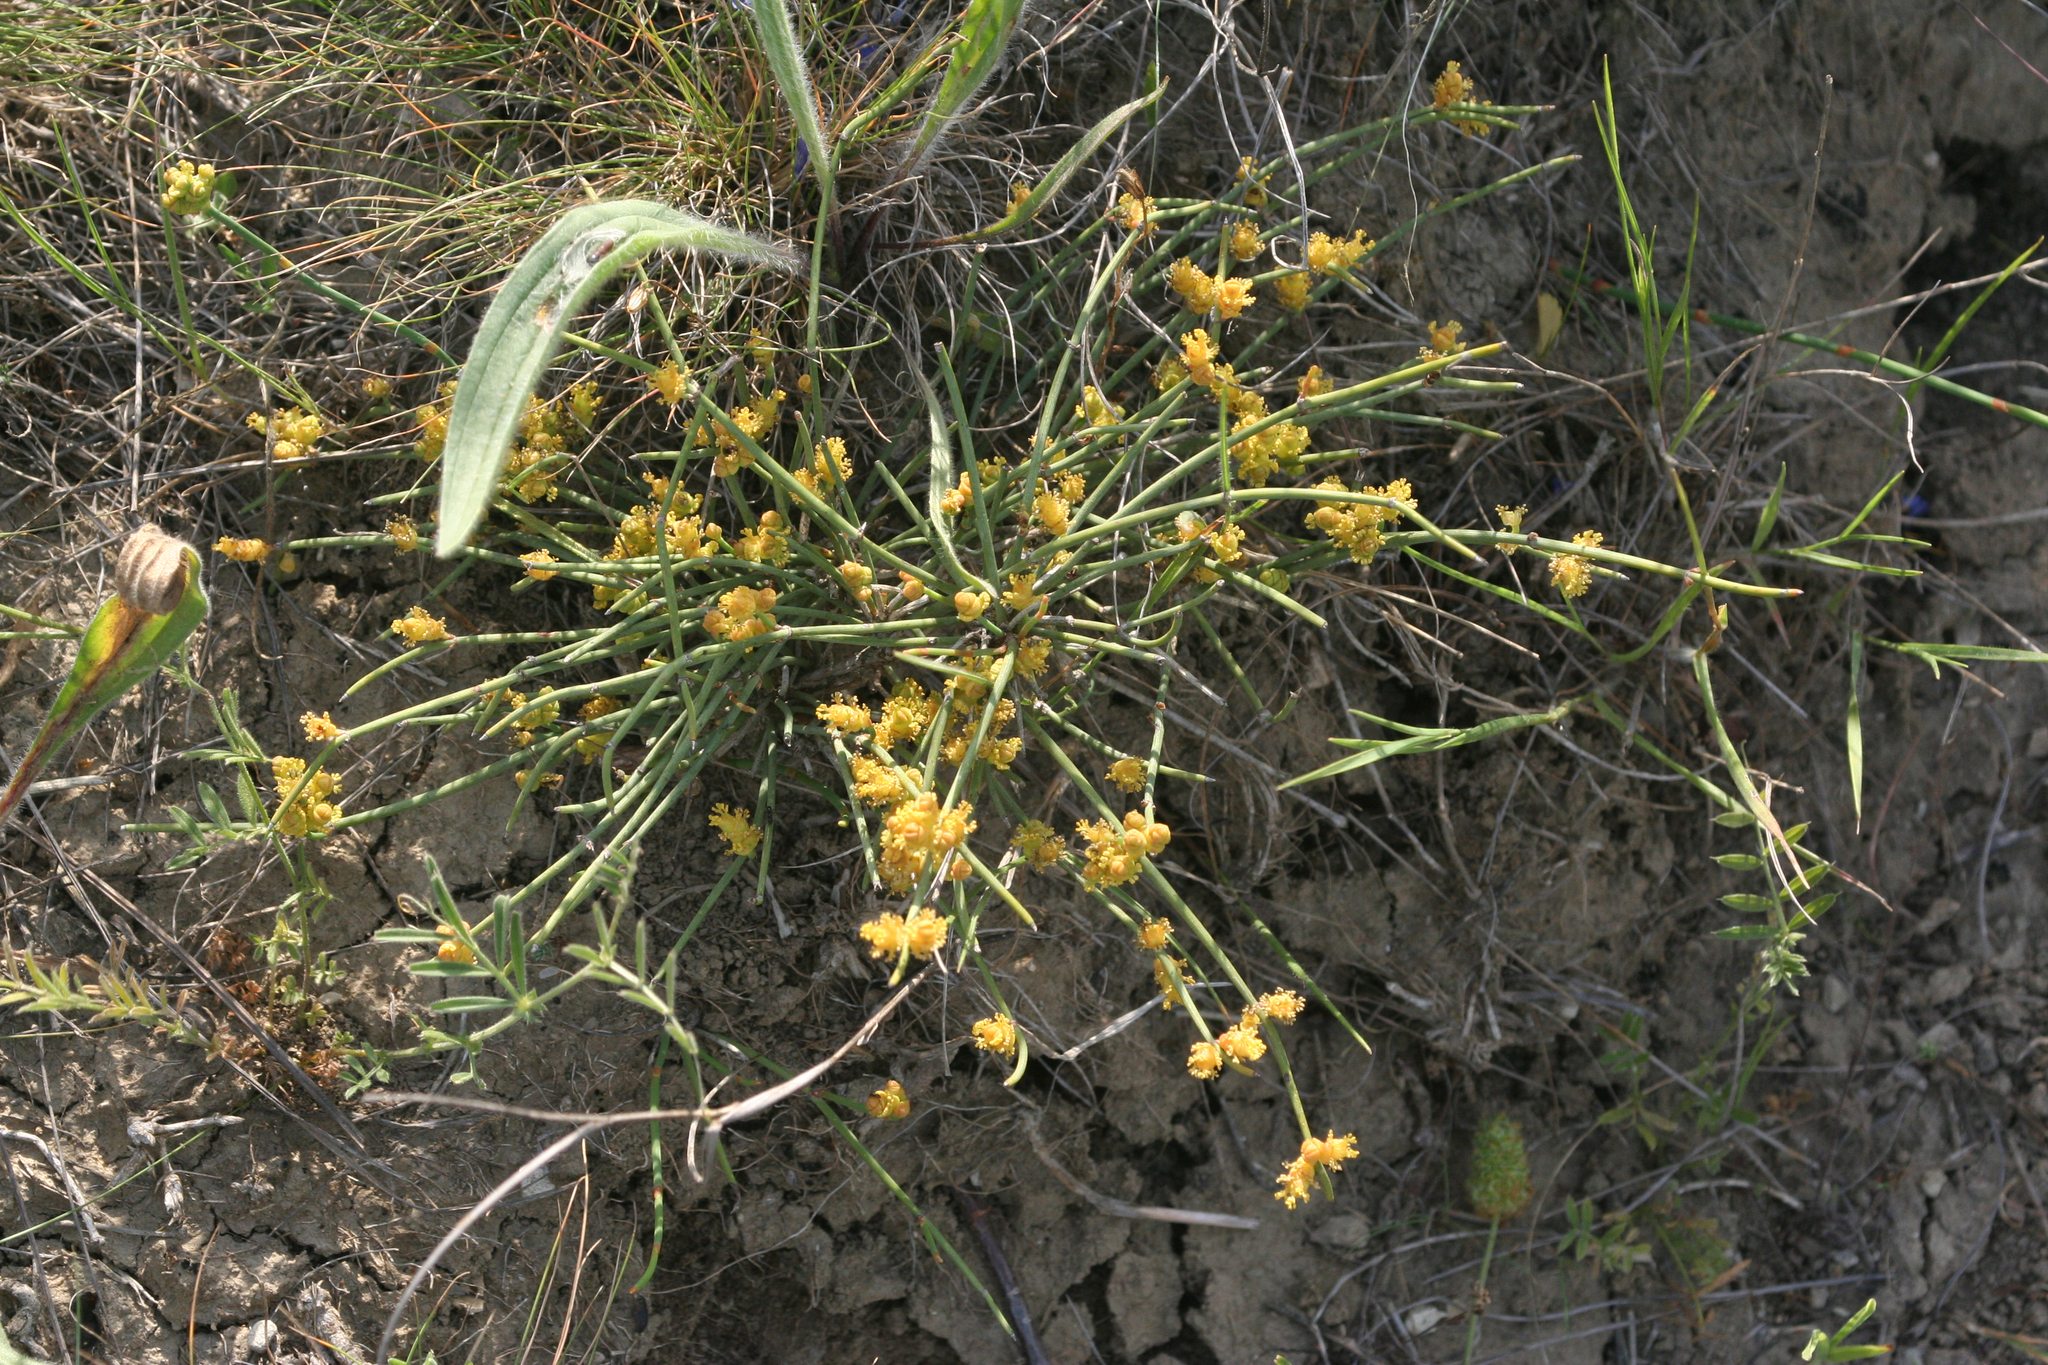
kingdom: Plantae
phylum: Tracheophyta
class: Gnetopsida
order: Ephedrales
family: Ephedraceae
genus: Ephedra
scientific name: Ephedra distachya
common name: Sea grape
